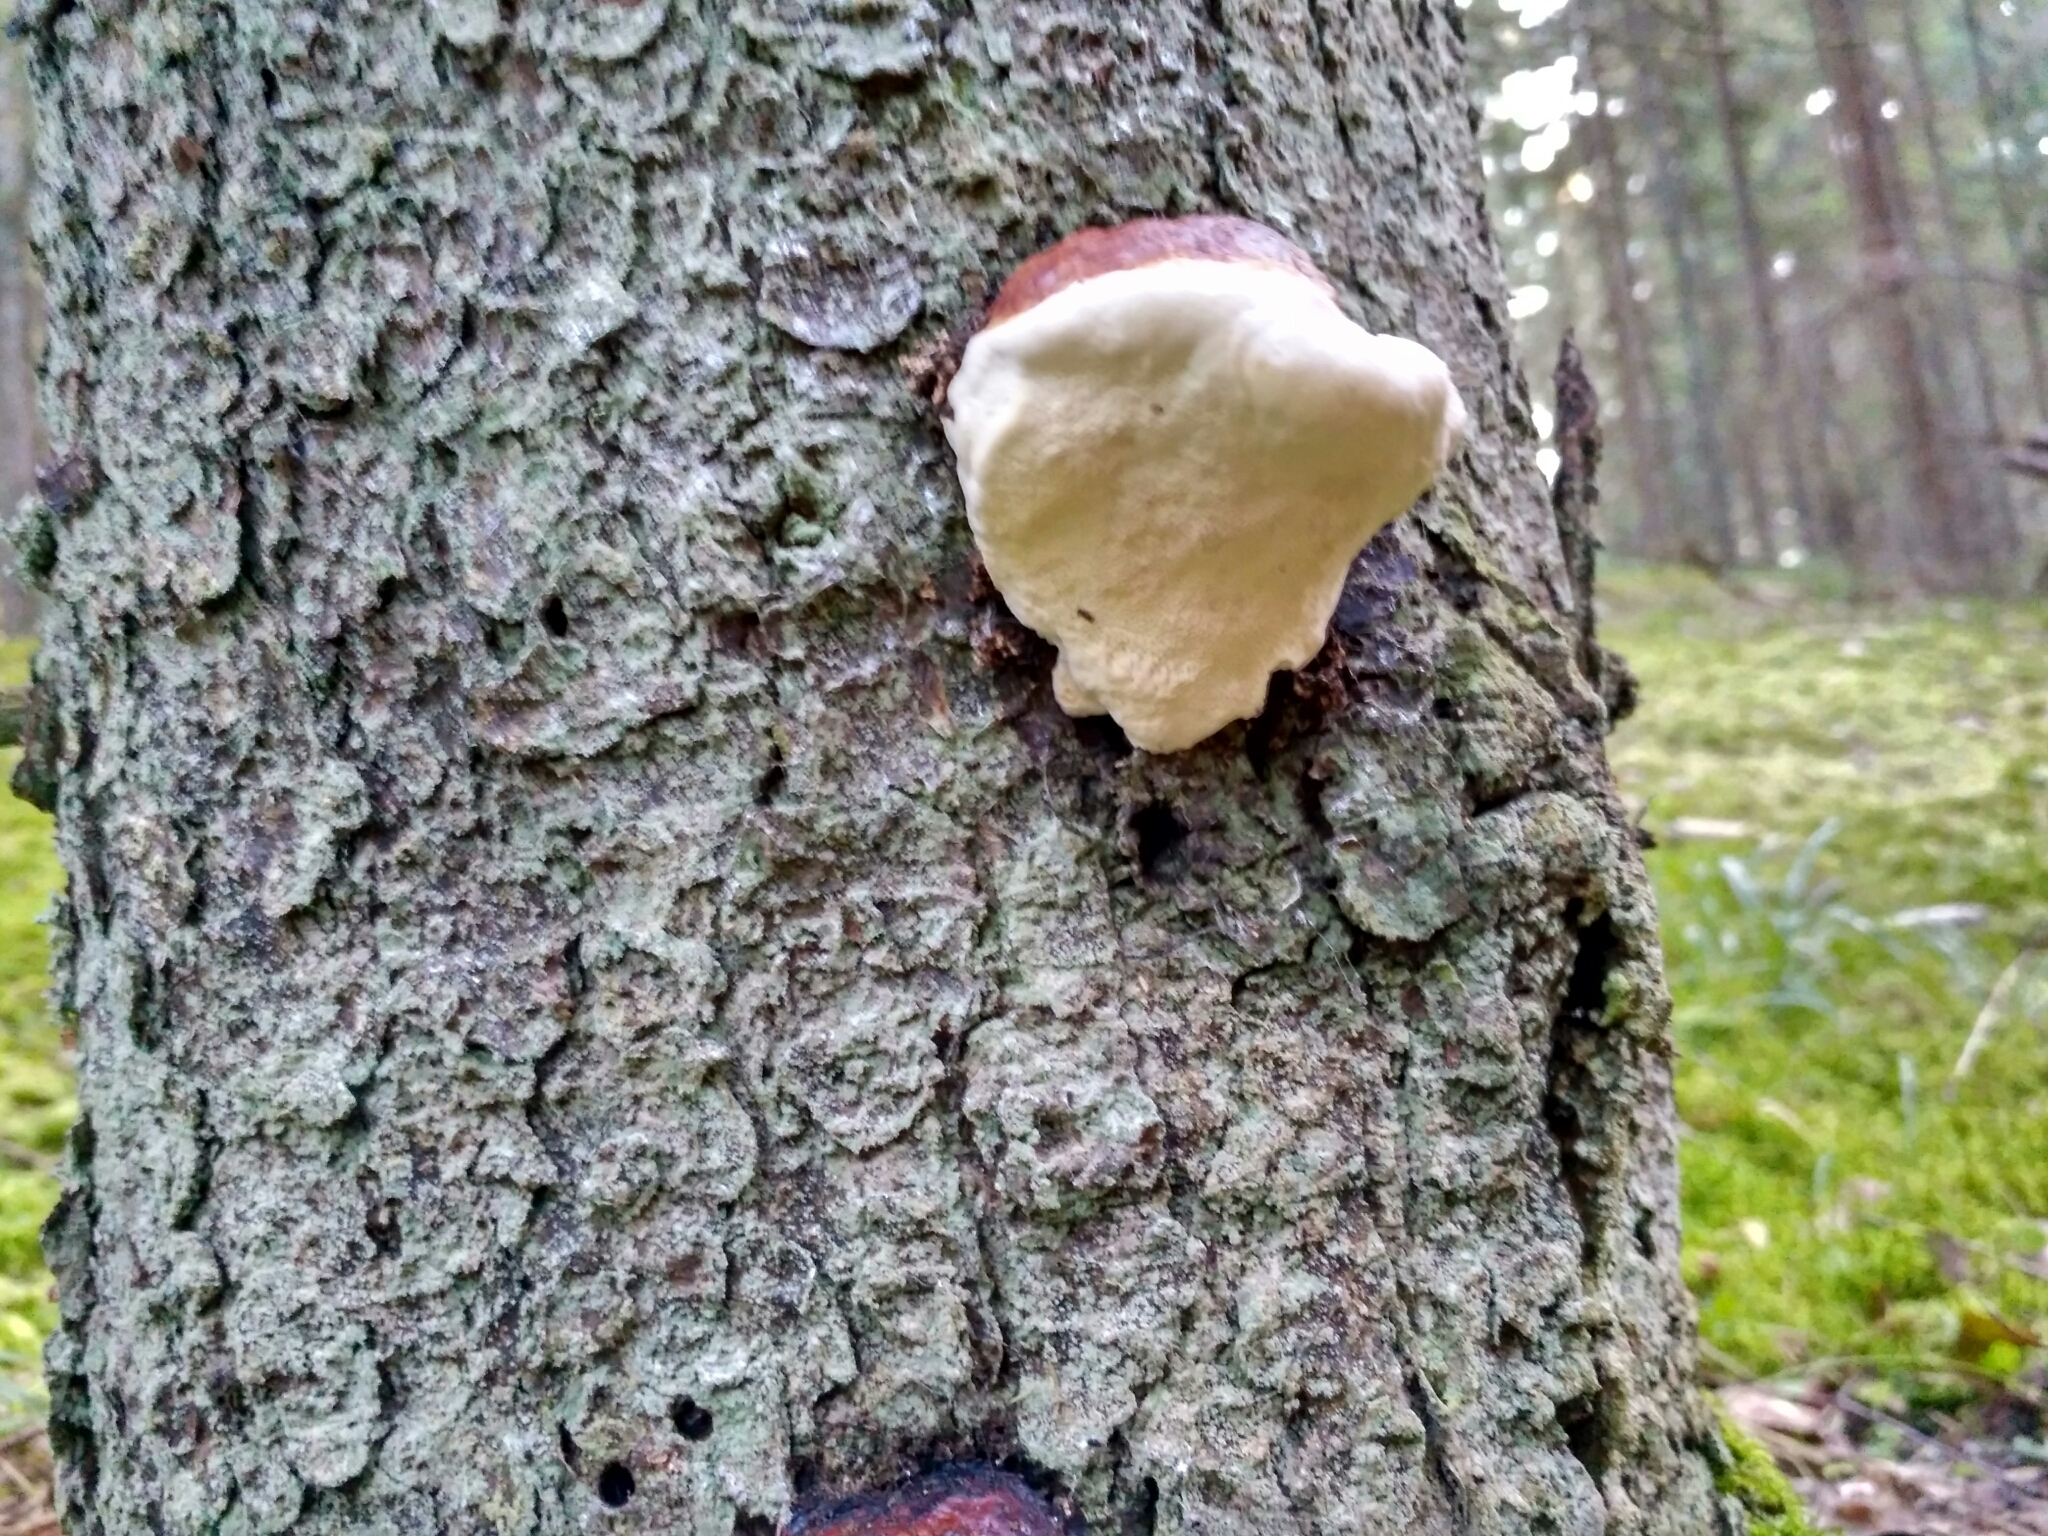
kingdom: Fungi
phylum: Basidiomycota
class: Agaricomycetes
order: Polyporales
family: Fomitopsidaceae
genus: Fomitopsis
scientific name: Fomitopsis pinicola
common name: Red-belted bracket
